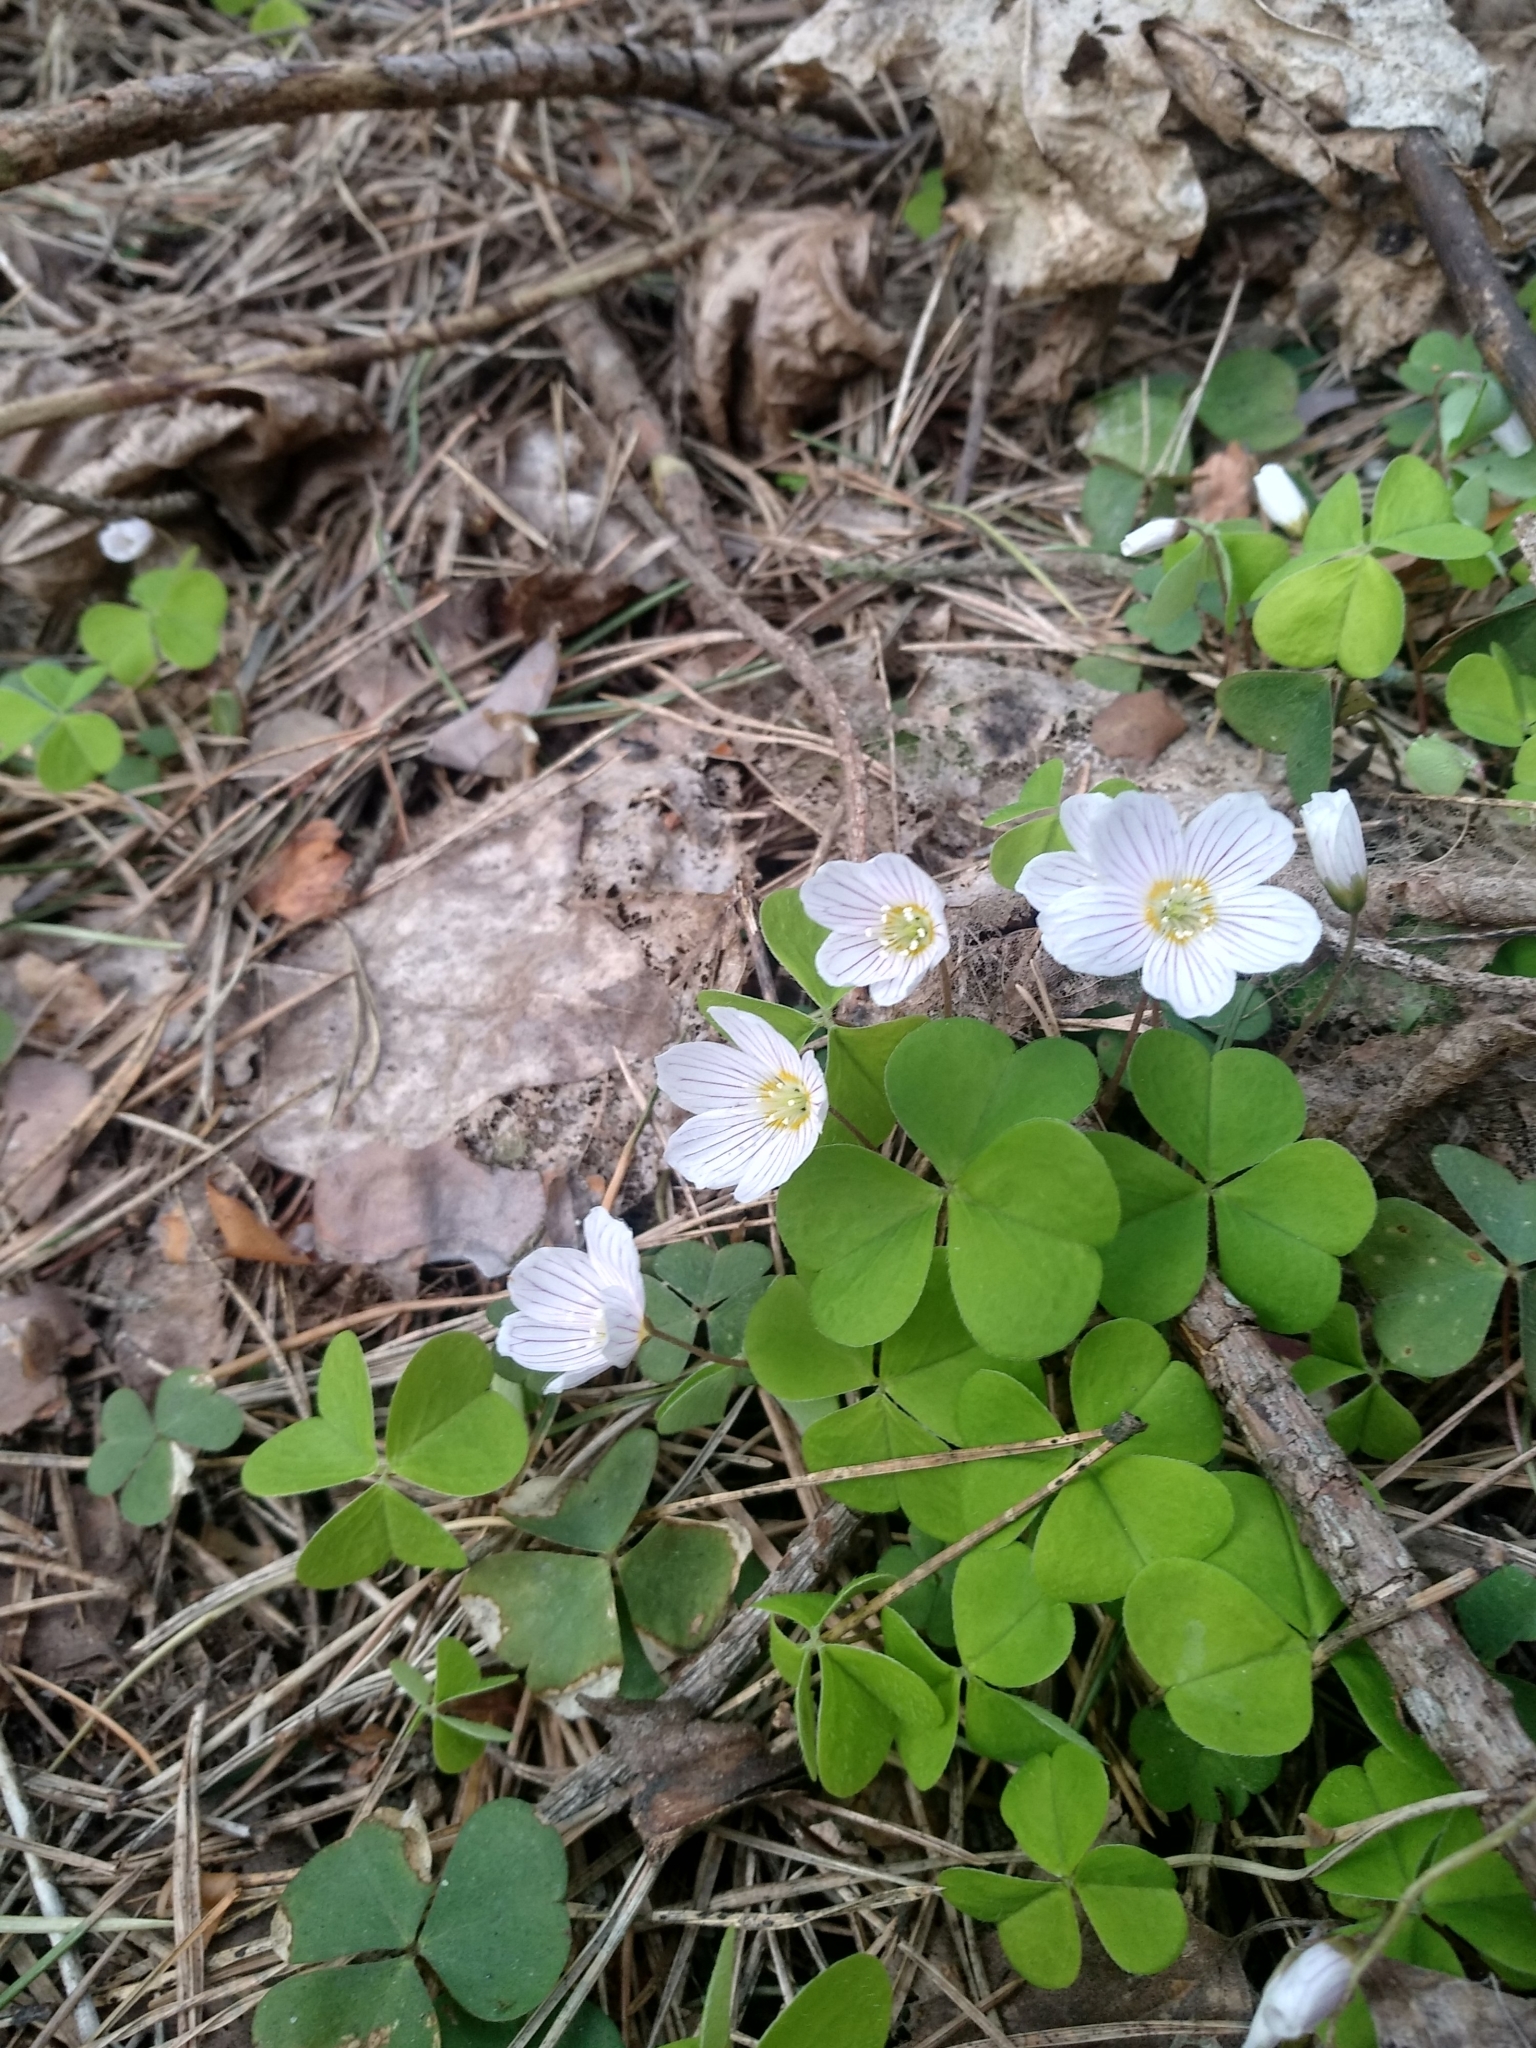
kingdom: Plantae
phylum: Tracheophyta
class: Magnoliopsida
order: Oxalidales
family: Oxalidaceae
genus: Oxalis
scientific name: Oxalis acetosella
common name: Wood-sorrel
